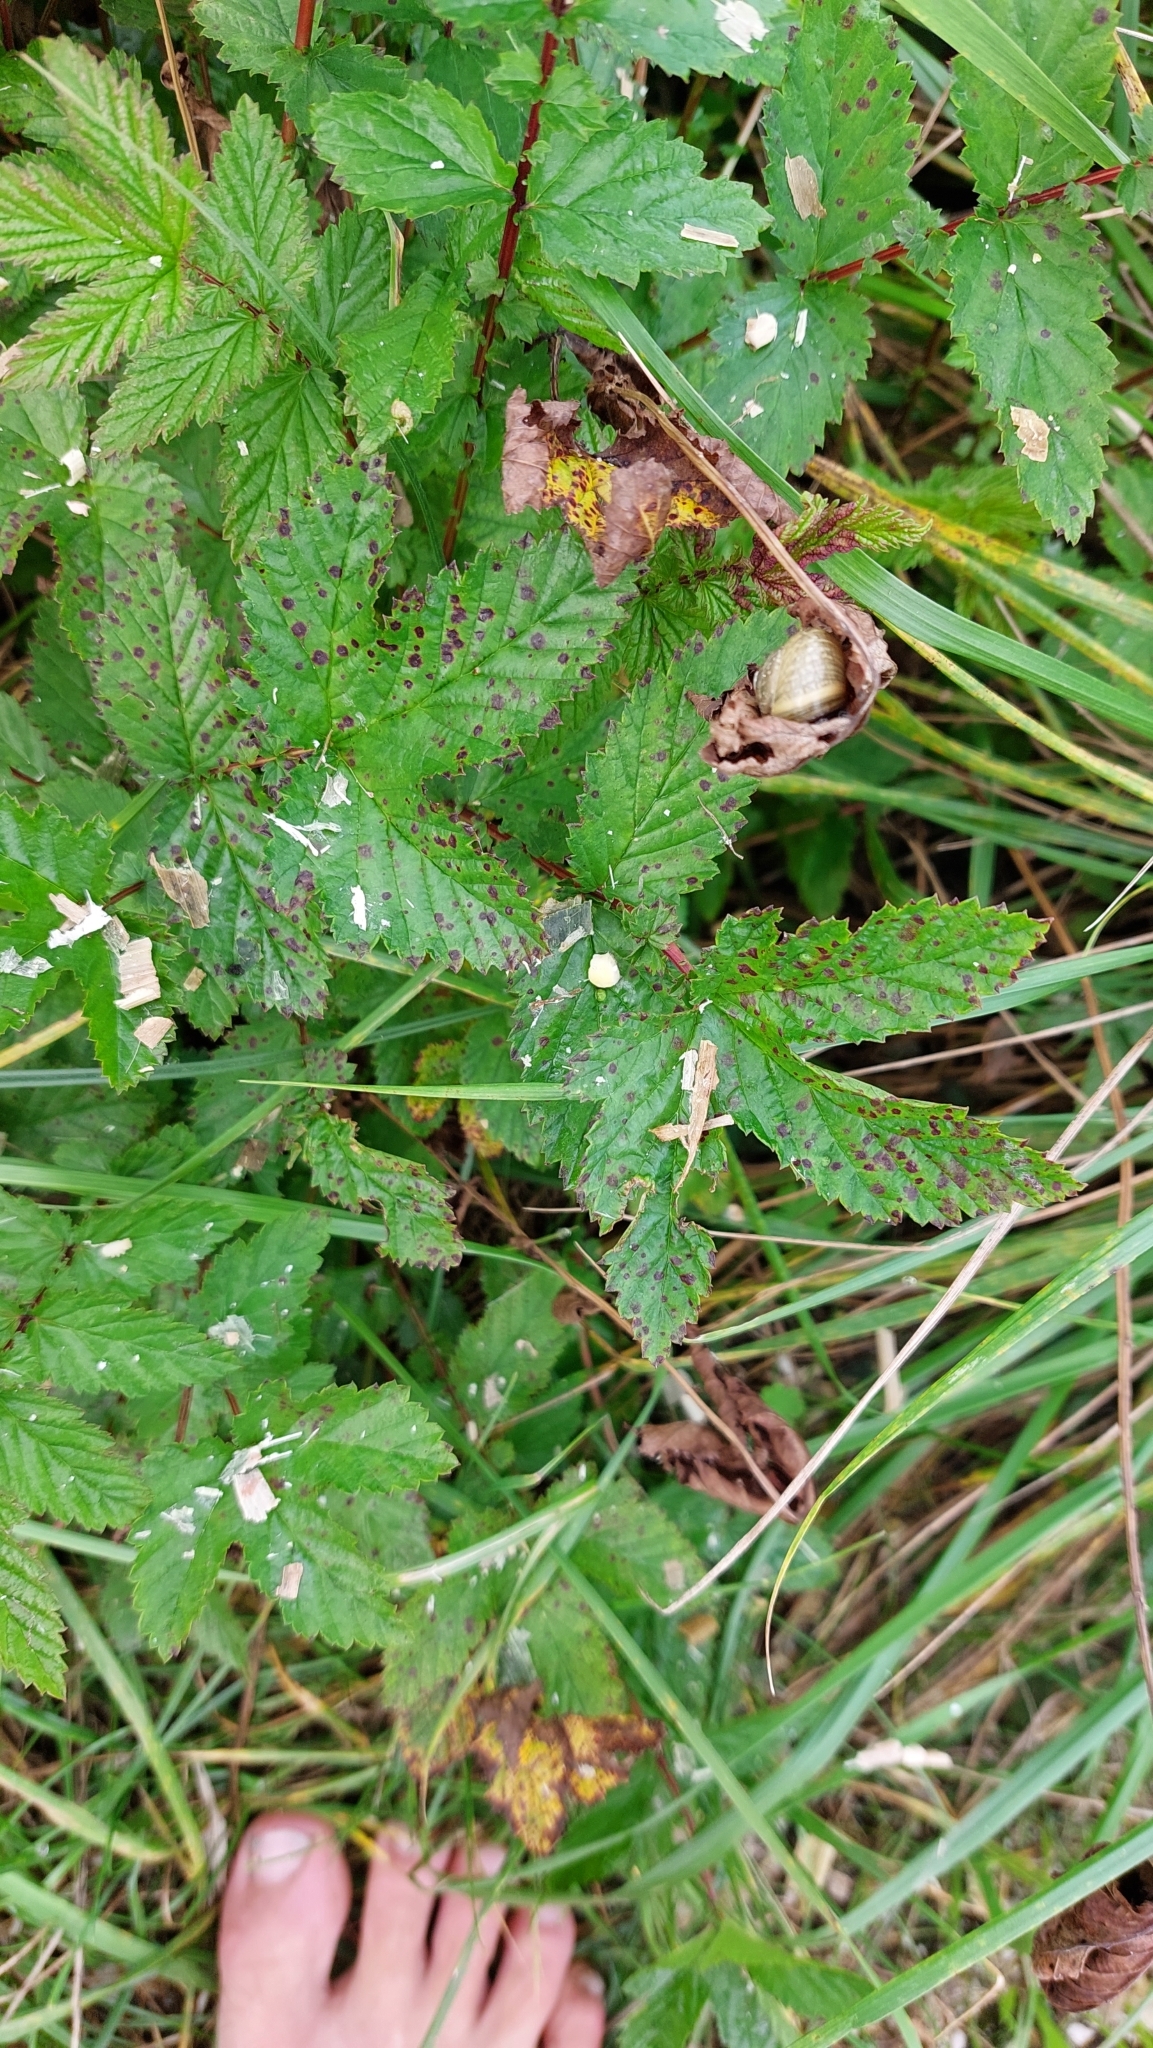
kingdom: Plantae
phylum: Tracheophyta
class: Magnoliopsida
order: Rosales
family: Rosaceae
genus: Filipendula
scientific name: Filipendula ulmaria
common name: Meadowsweet
